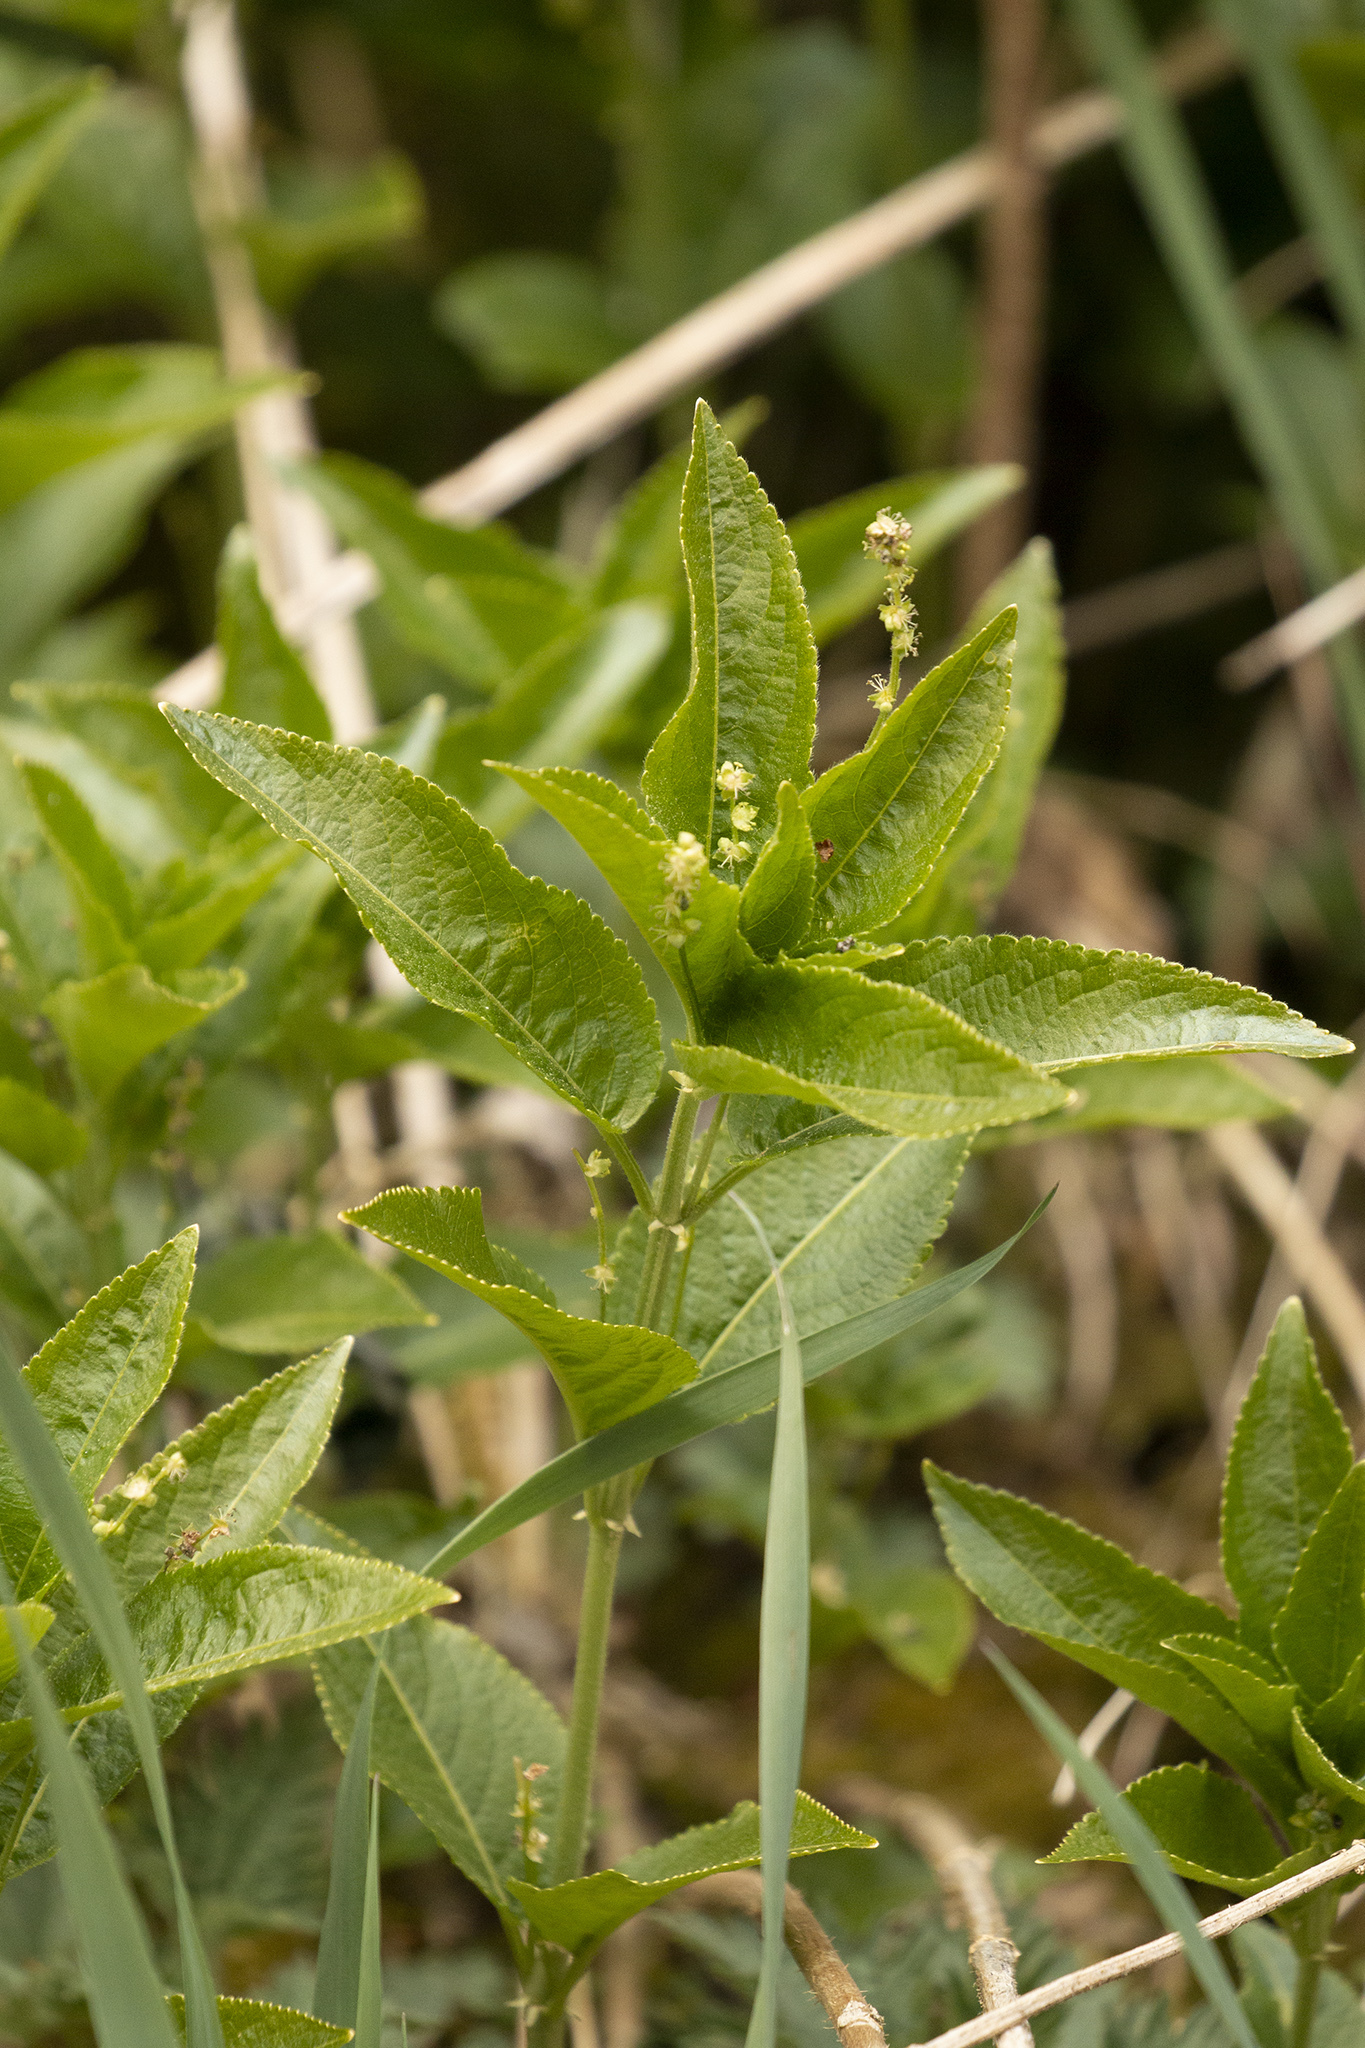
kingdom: Plantae
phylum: Tracheophyta
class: Magnoliopsida
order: Malpighiales
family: Euphorbiaceae
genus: Mercurialis
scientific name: Mercurialis perennis
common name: Dog mercury
